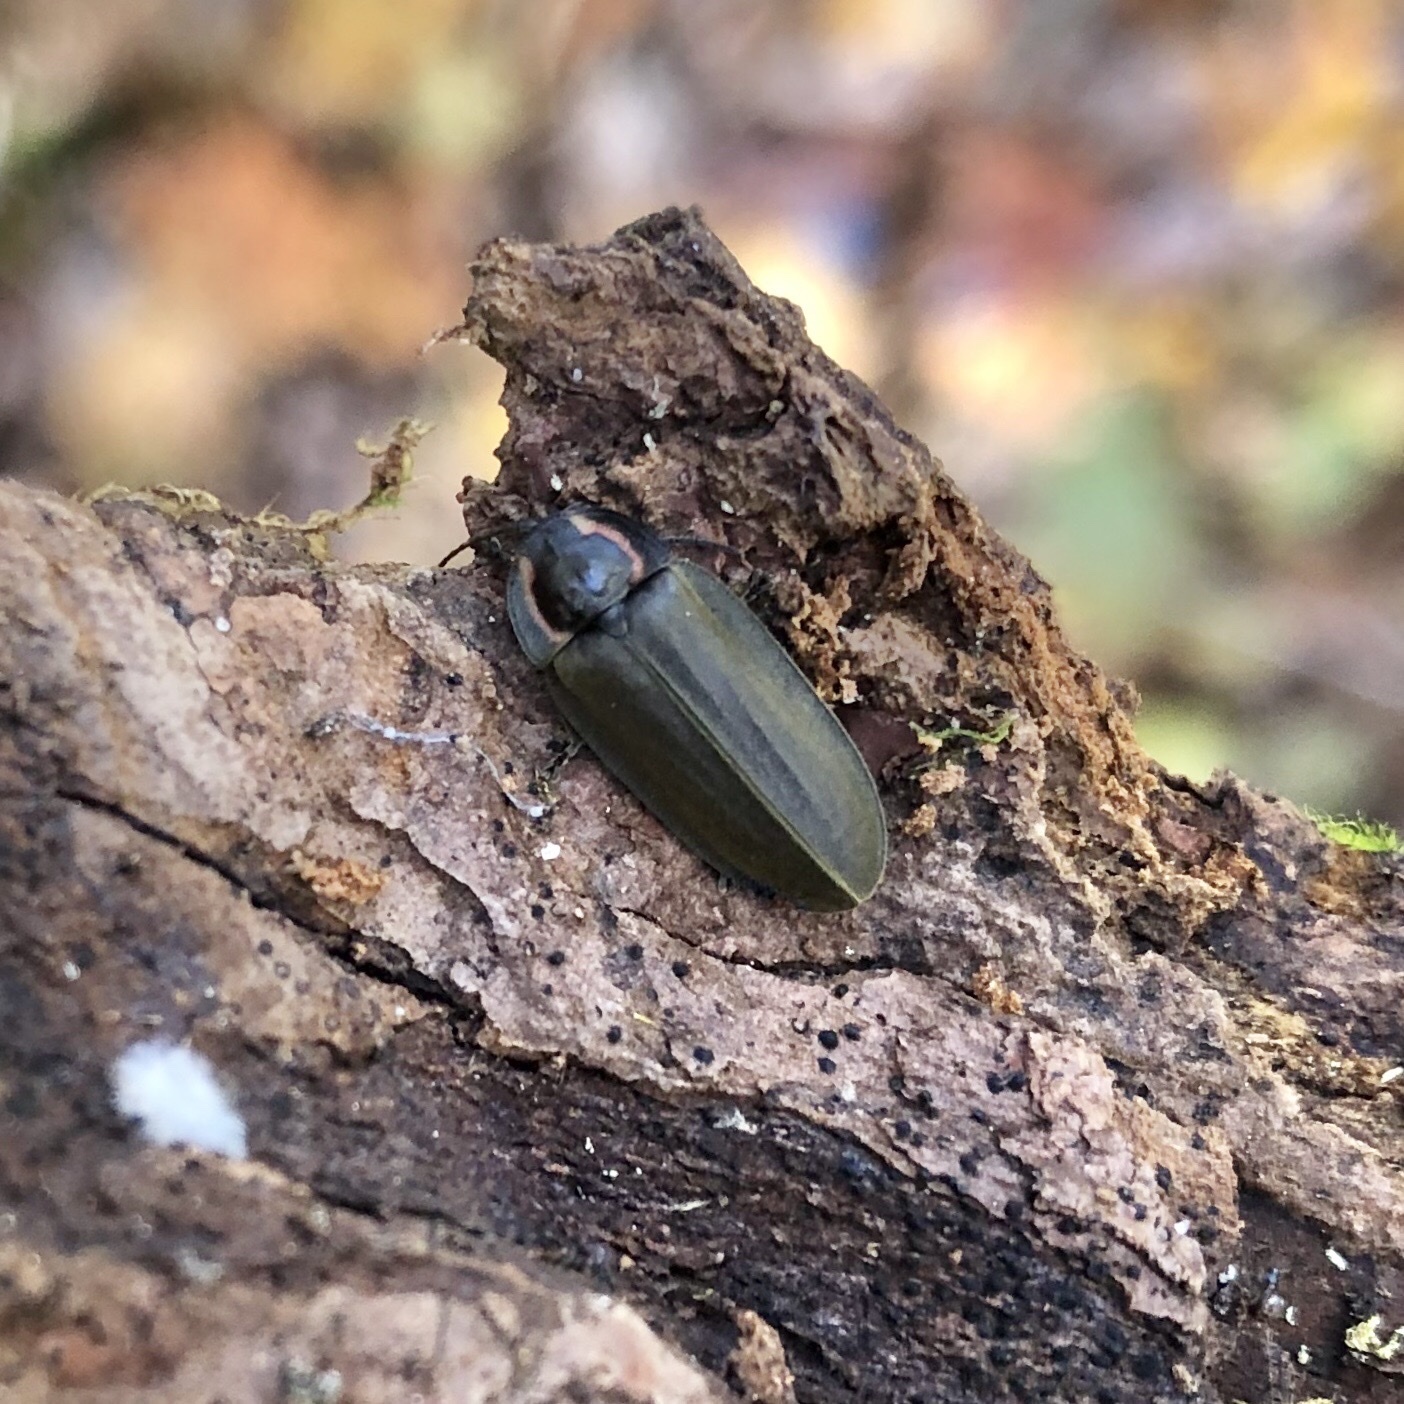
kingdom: Animalia
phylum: Arthropoda
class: Insecta
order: Coleoptera
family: Lampyridae
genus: Photinus
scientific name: Photinus corrusca
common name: Winter firefly
